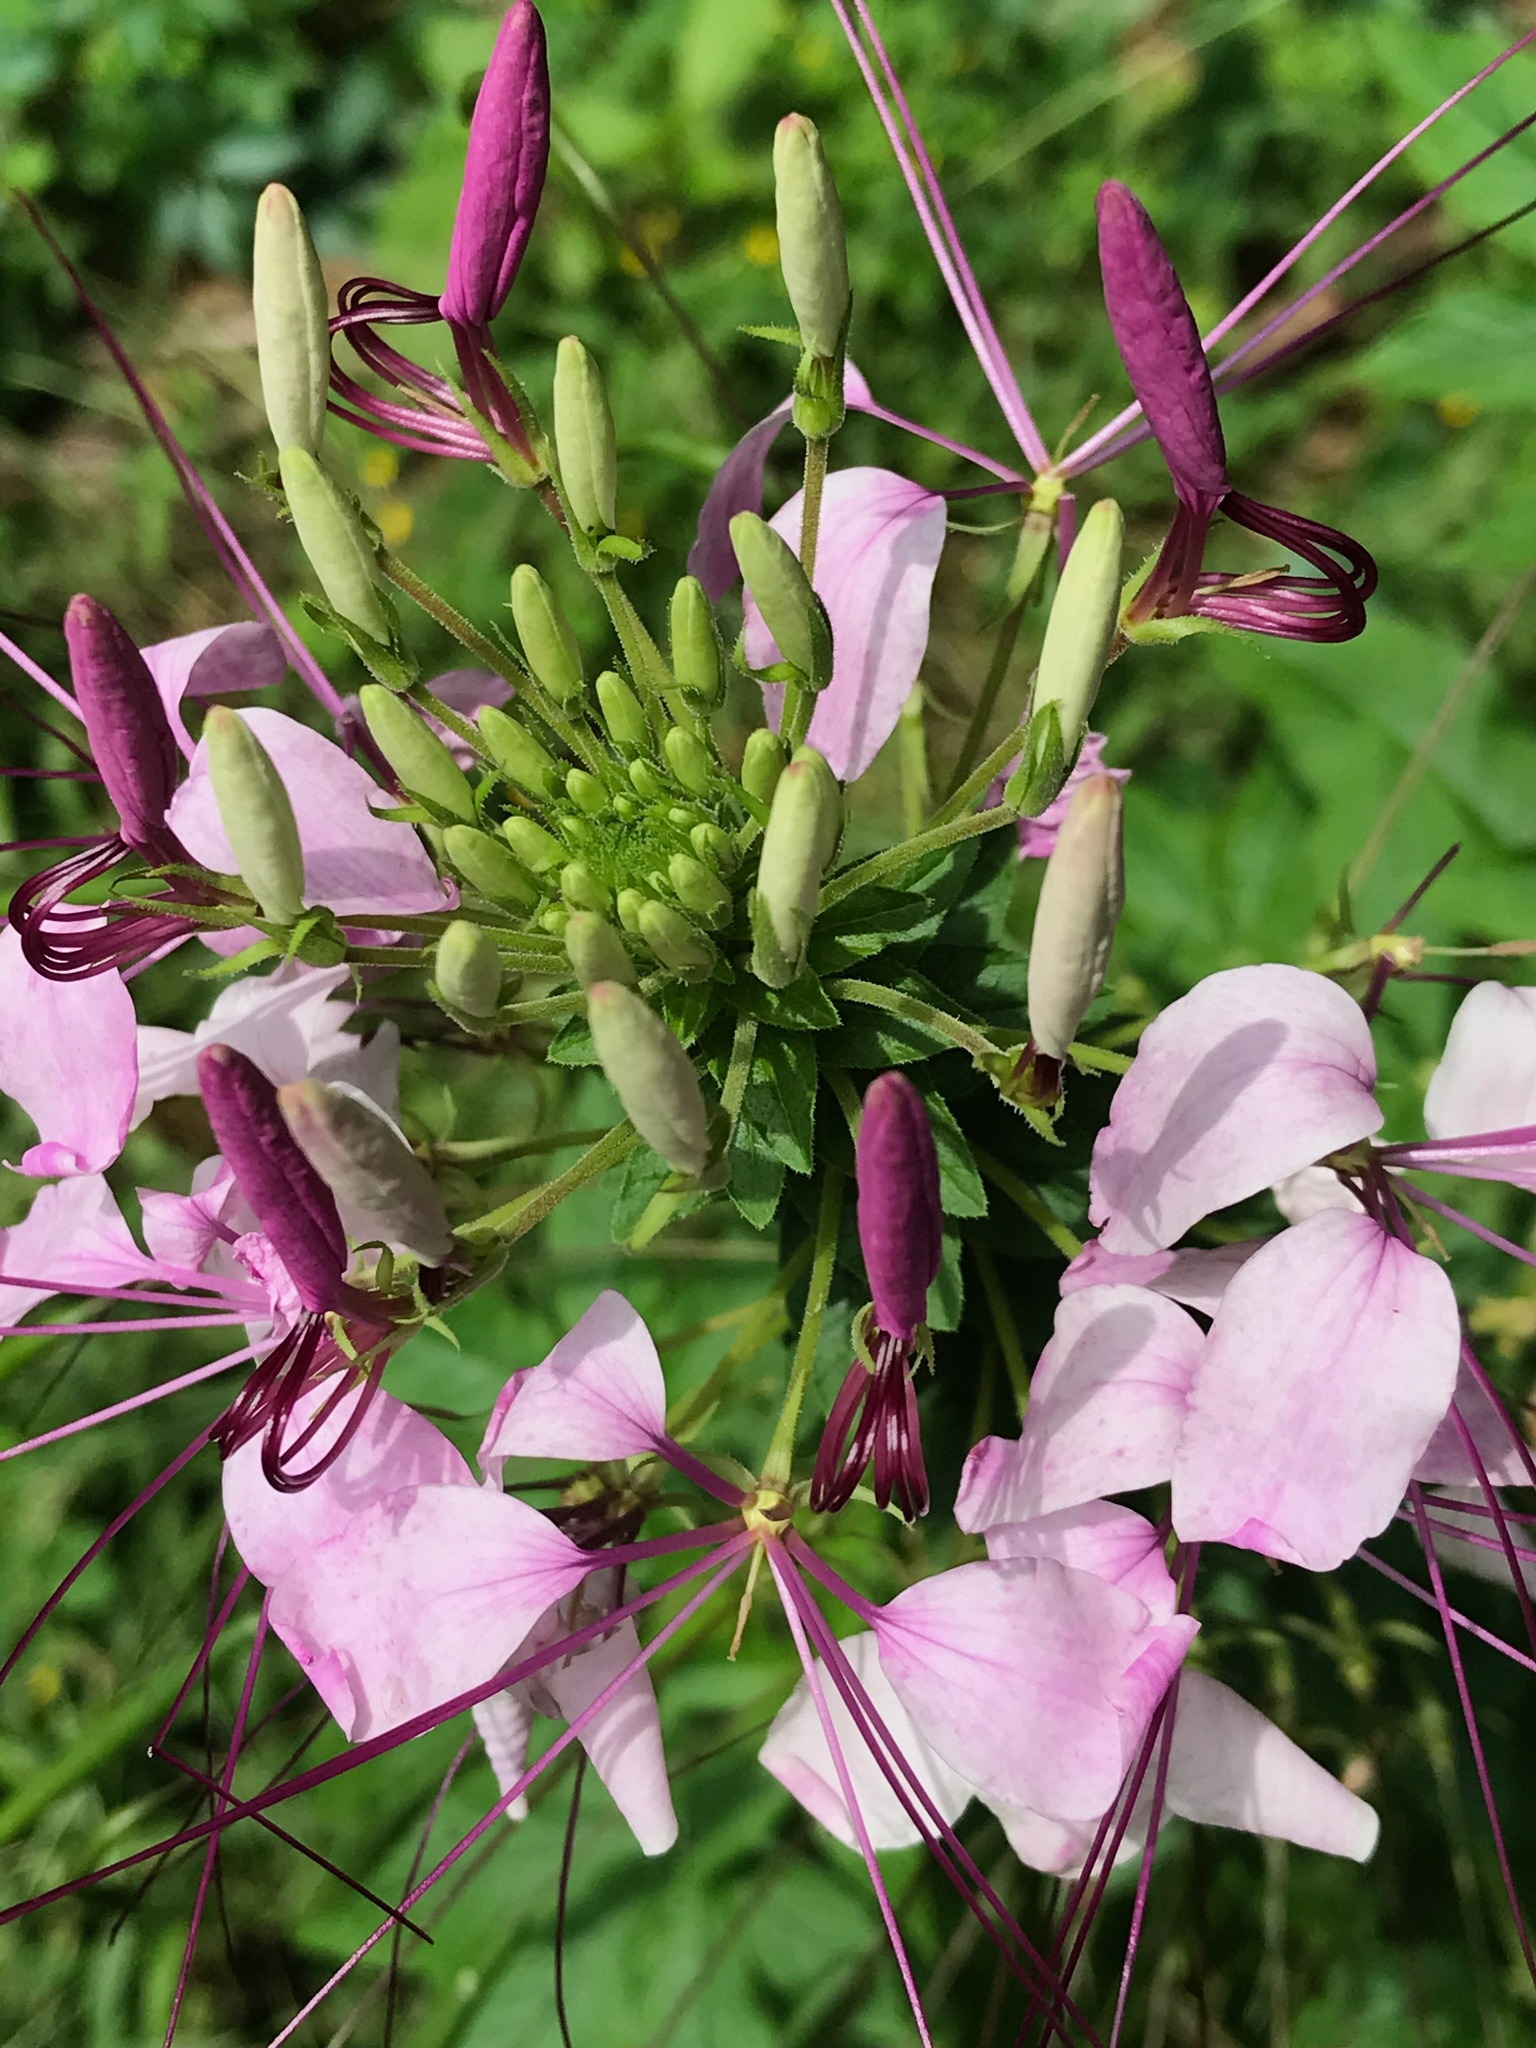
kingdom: Plantae
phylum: Tracheophyta
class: Magnoliopsida
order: Brassicales
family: Cleomaceae
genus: Tarenaya
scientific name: Tarenaya houtteana
